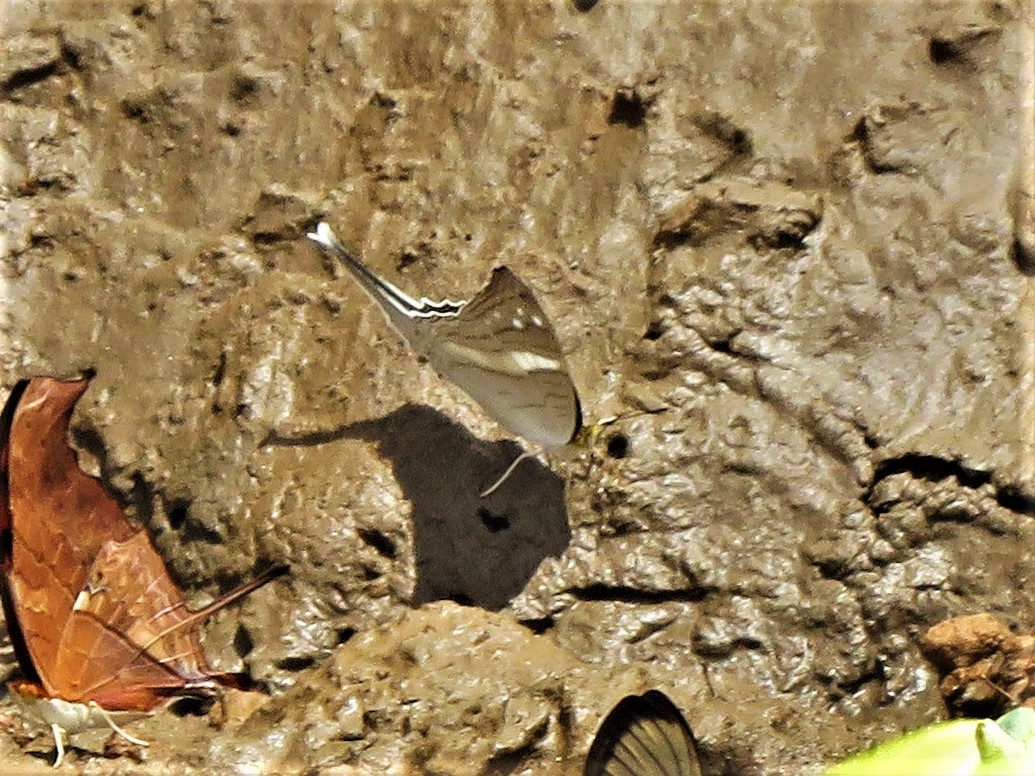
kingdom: Animalia
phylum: Arthropoda
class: Insecta
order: Lepidoptera
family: Nymphalidae
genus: Marpesia
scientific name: Marpesia crethon
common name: Crethon daggerwing
